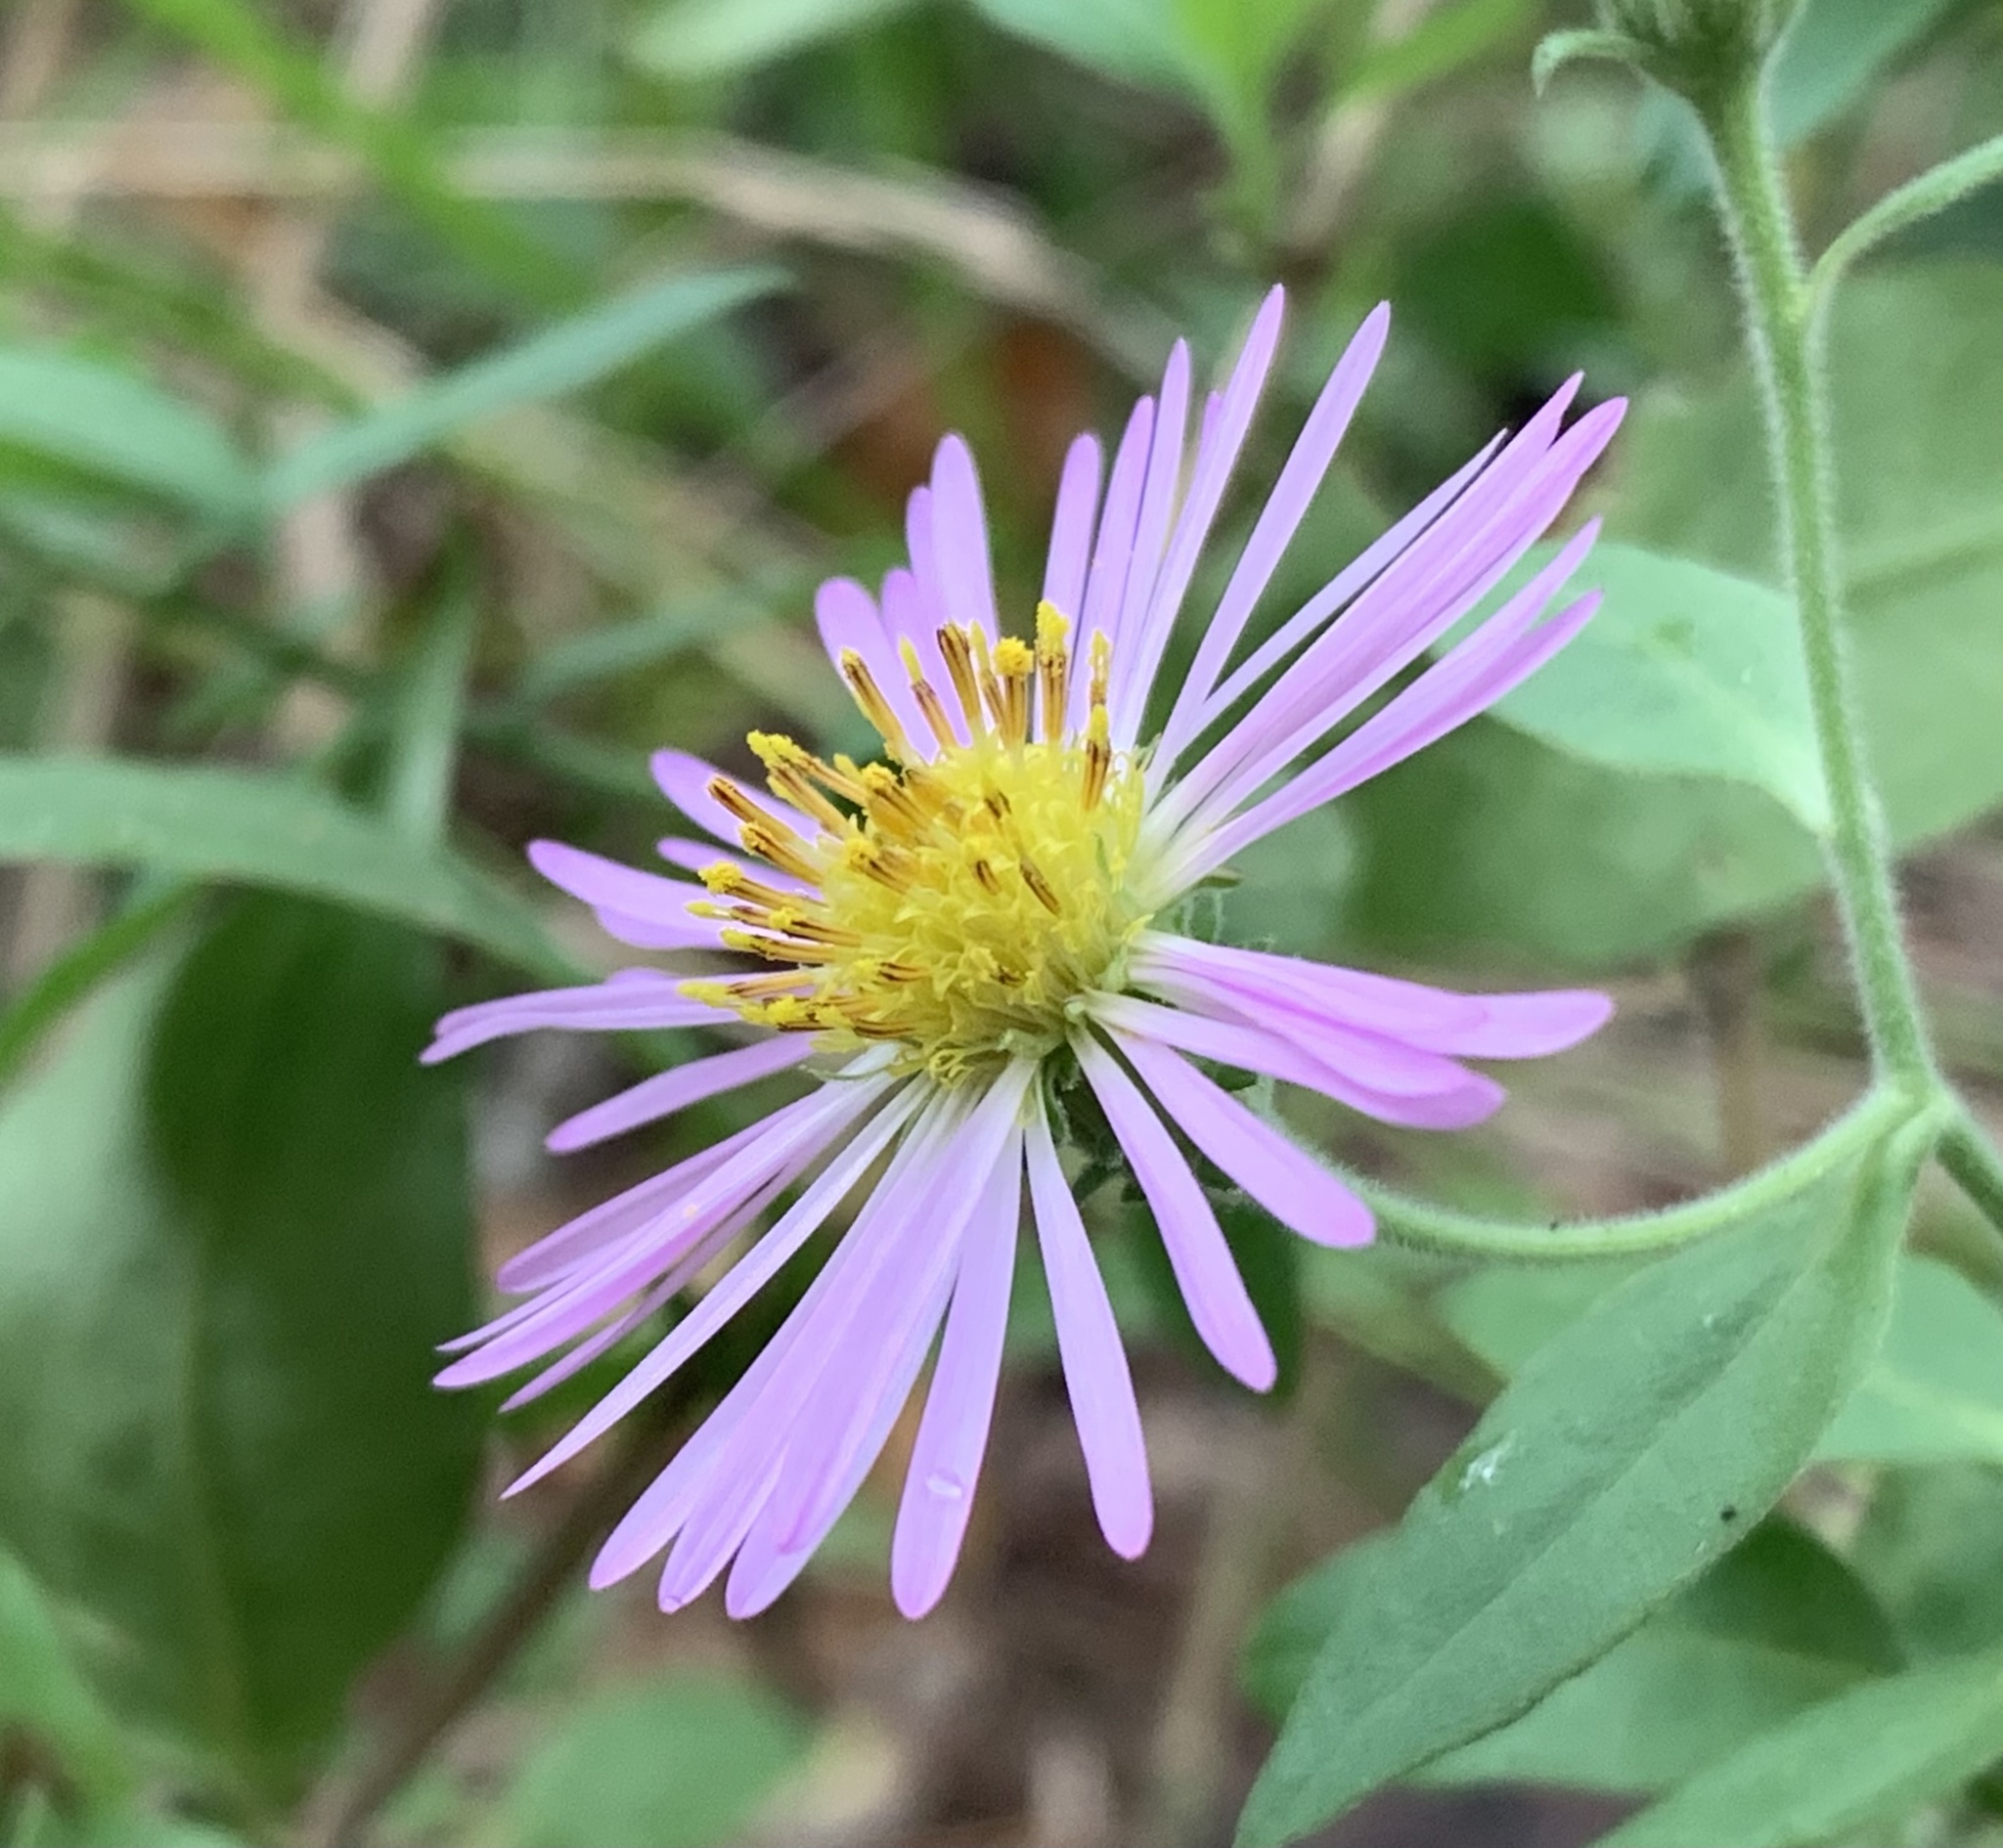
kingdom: Plantae
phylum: Tracheophyta
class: Magnoliopsida
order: Asterales
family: Asteraceae
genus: Ampelaster
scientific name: Ampelaster carolinianus
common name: Climbing aster
